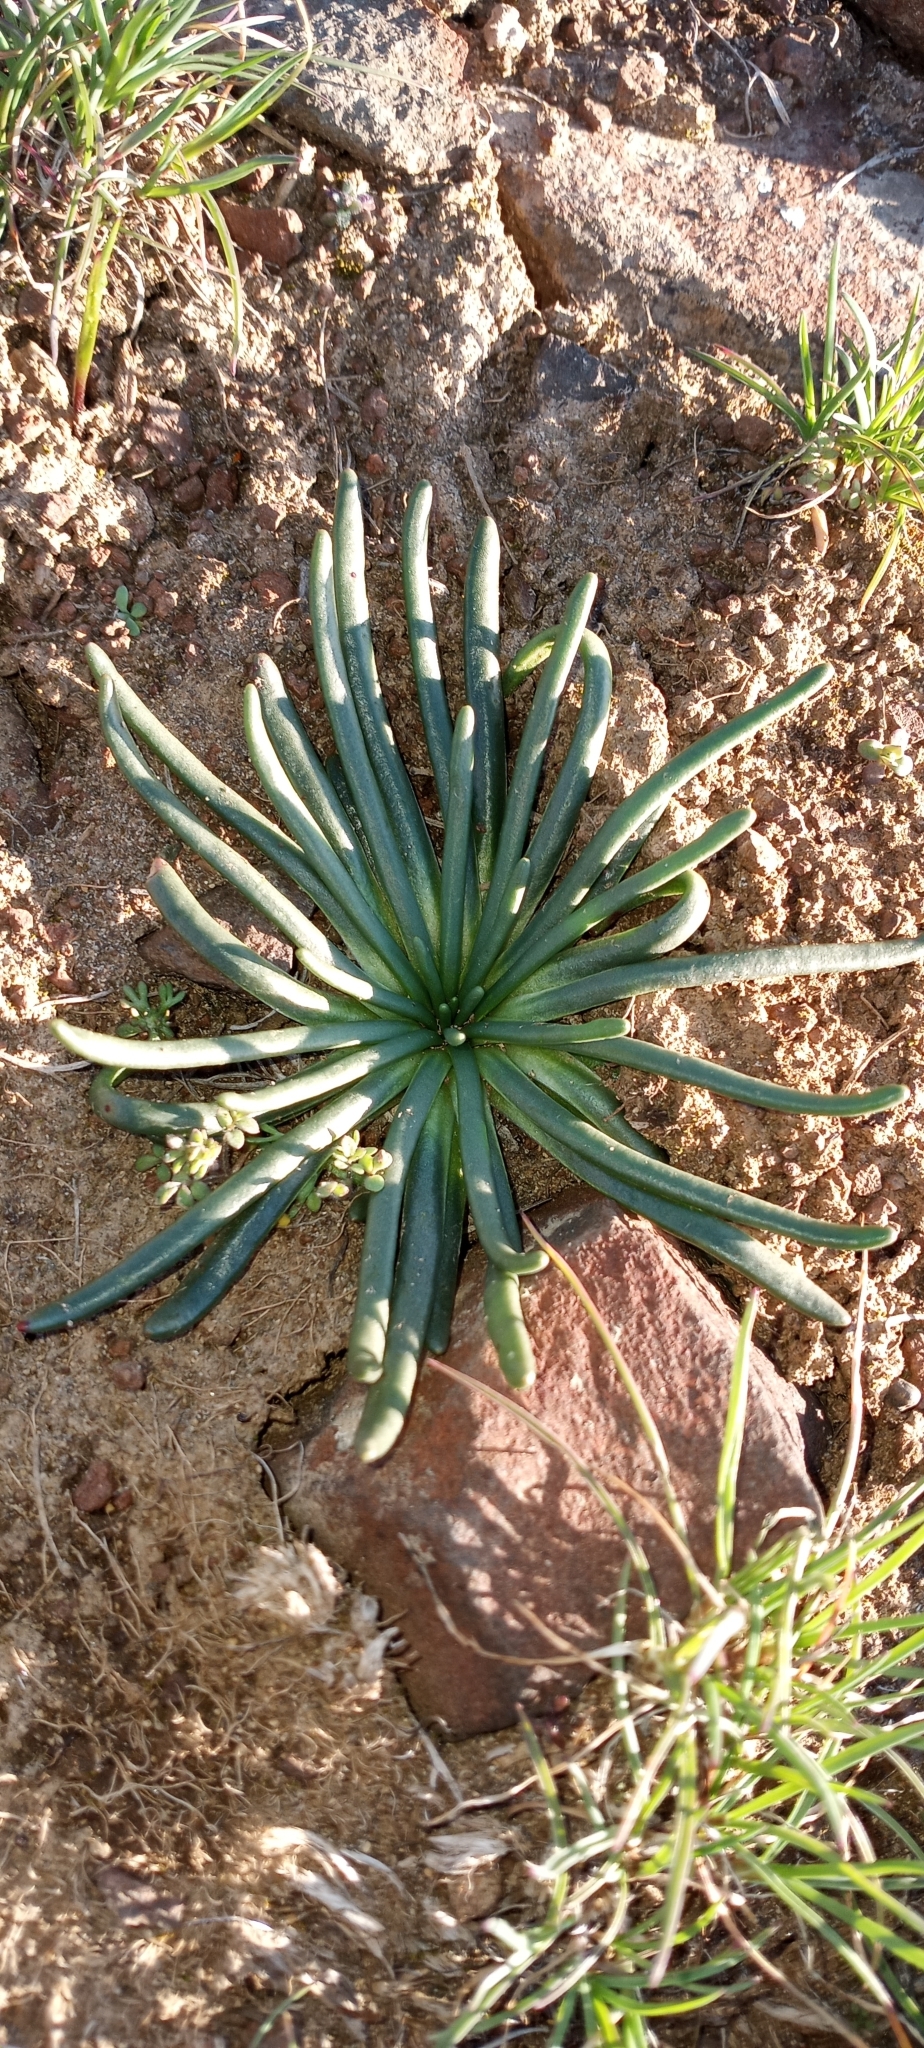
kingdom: Plantae
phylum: Tracheophyta
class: Magnoliopsida
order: Caryophyllales
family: Montiaceae
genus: Lewisia
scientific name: Lewisia rediviva
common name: Bitter-root
